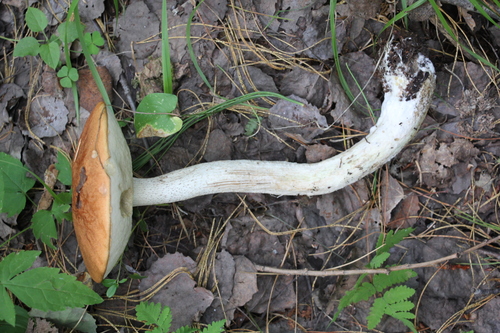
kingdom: Fungi
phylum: Basidiomycota
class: Agaricomycetes
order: Boletales
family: Boletaceae
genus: Leccinum
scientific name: Leccinum albostipitatum
